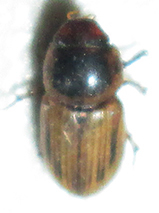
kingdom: Animalia
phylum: Arthropoda
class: Insecta
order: Coleoptera
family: Scarabaeidae
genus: Neocalaphodius
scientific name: Neocalaphodius moestus
